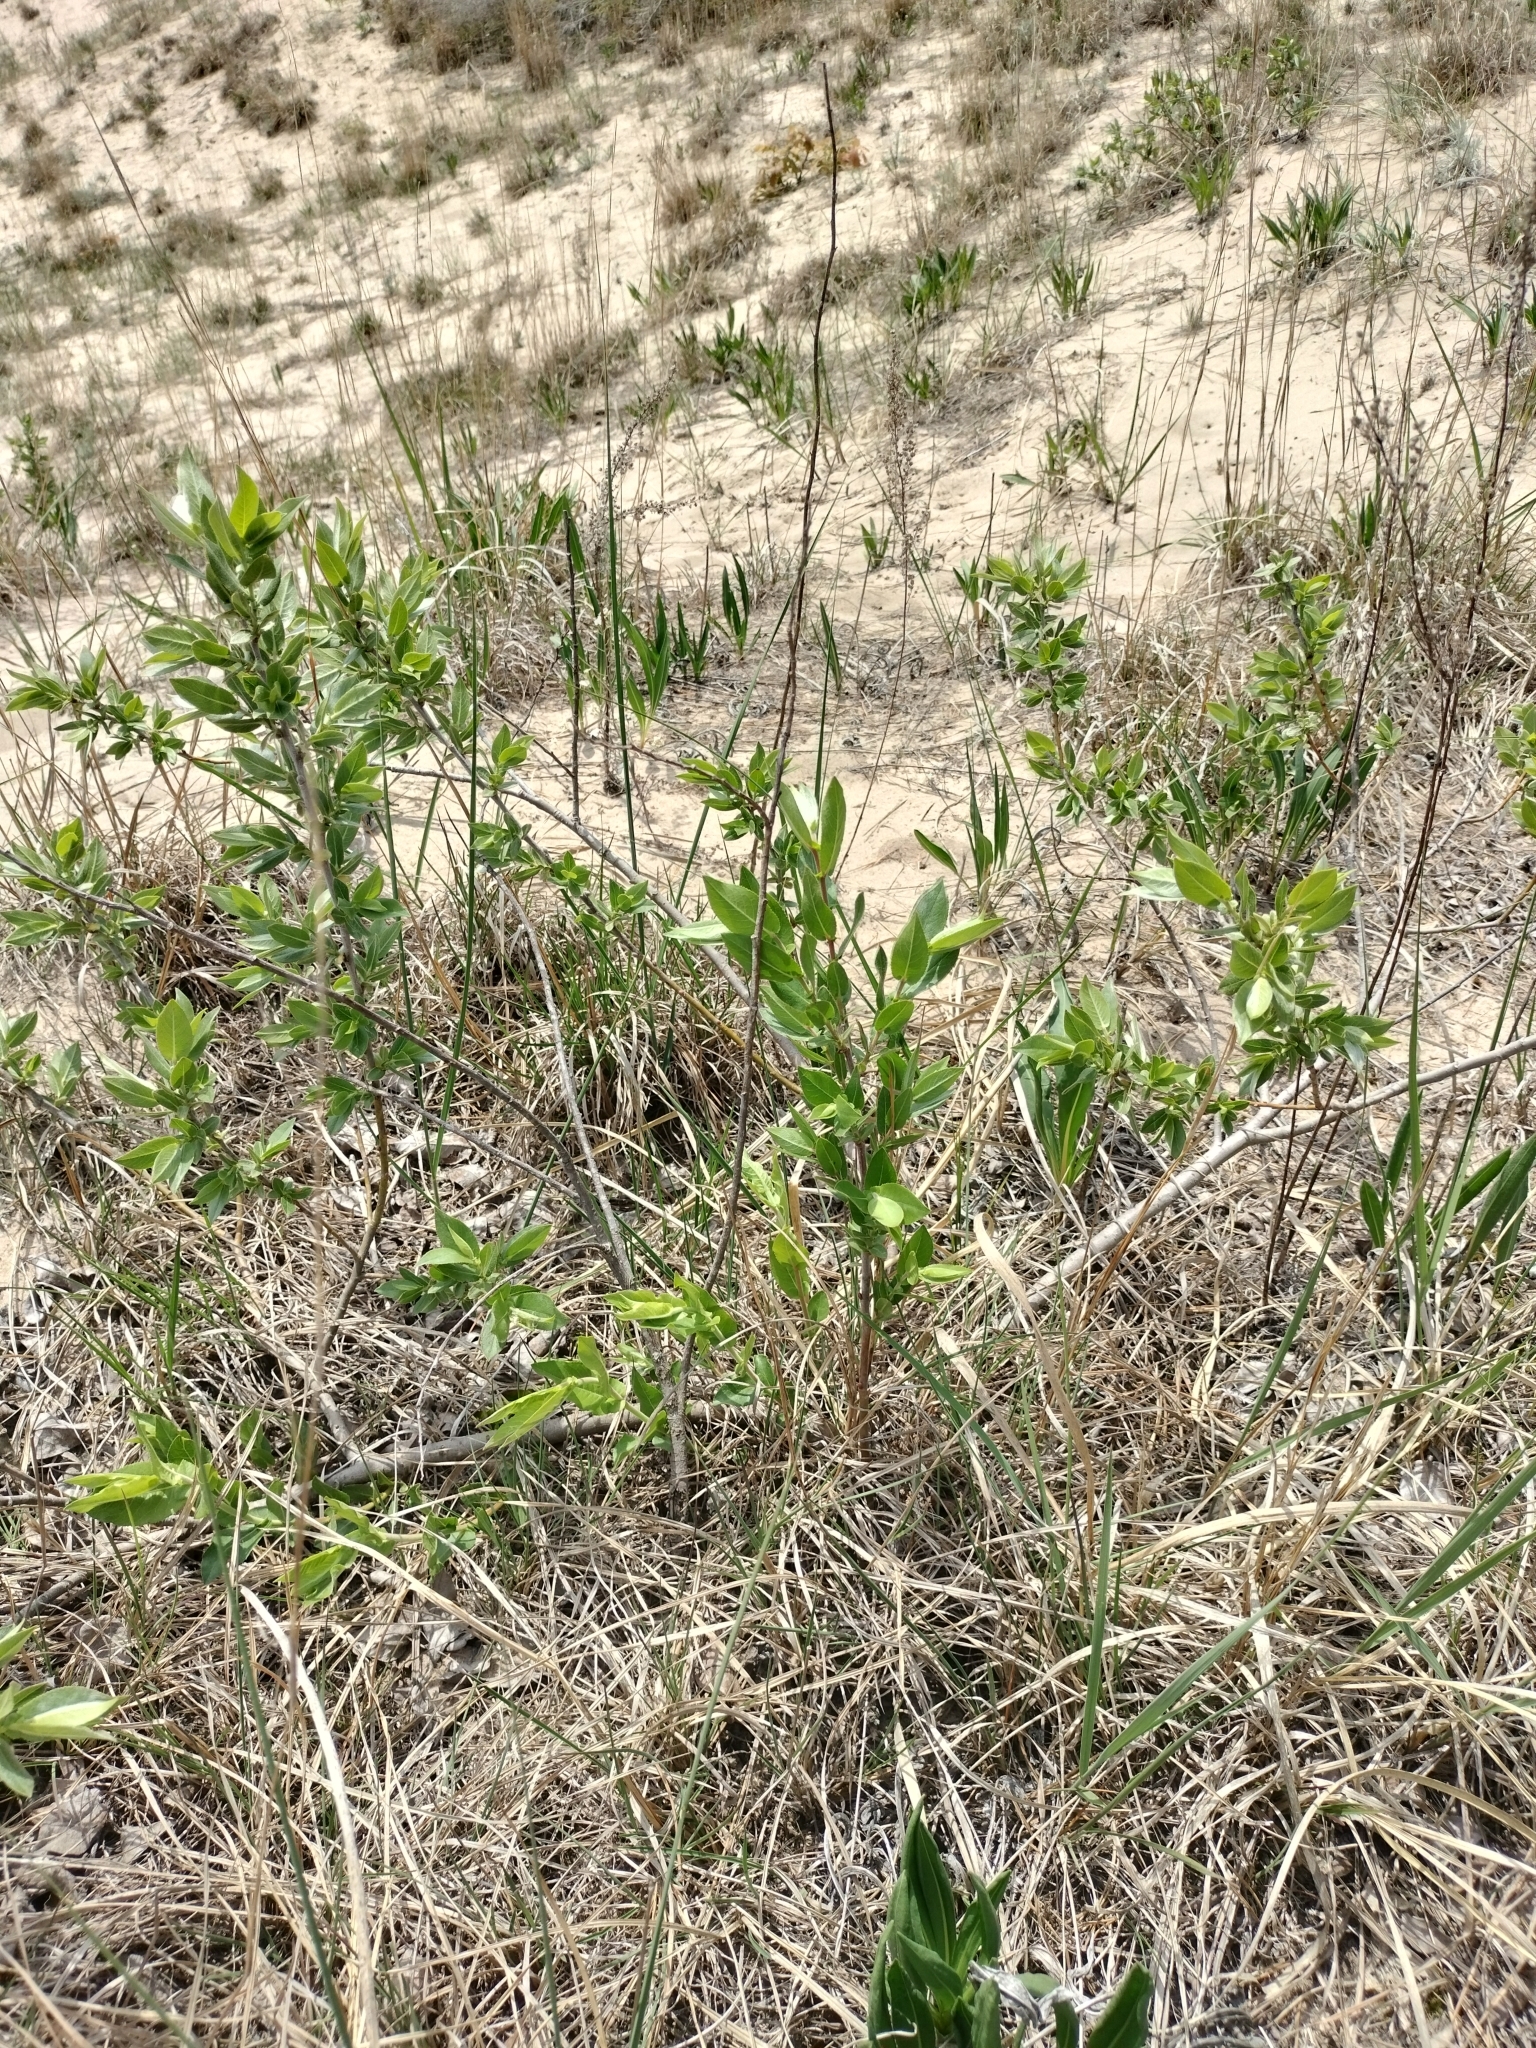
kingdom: Plantae
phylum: Tracheophyta
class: Magnoliopsida
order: Malpighiales
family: Salicaceae
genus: Salix
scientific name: Salix cordata
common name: Heart-leaf willow
